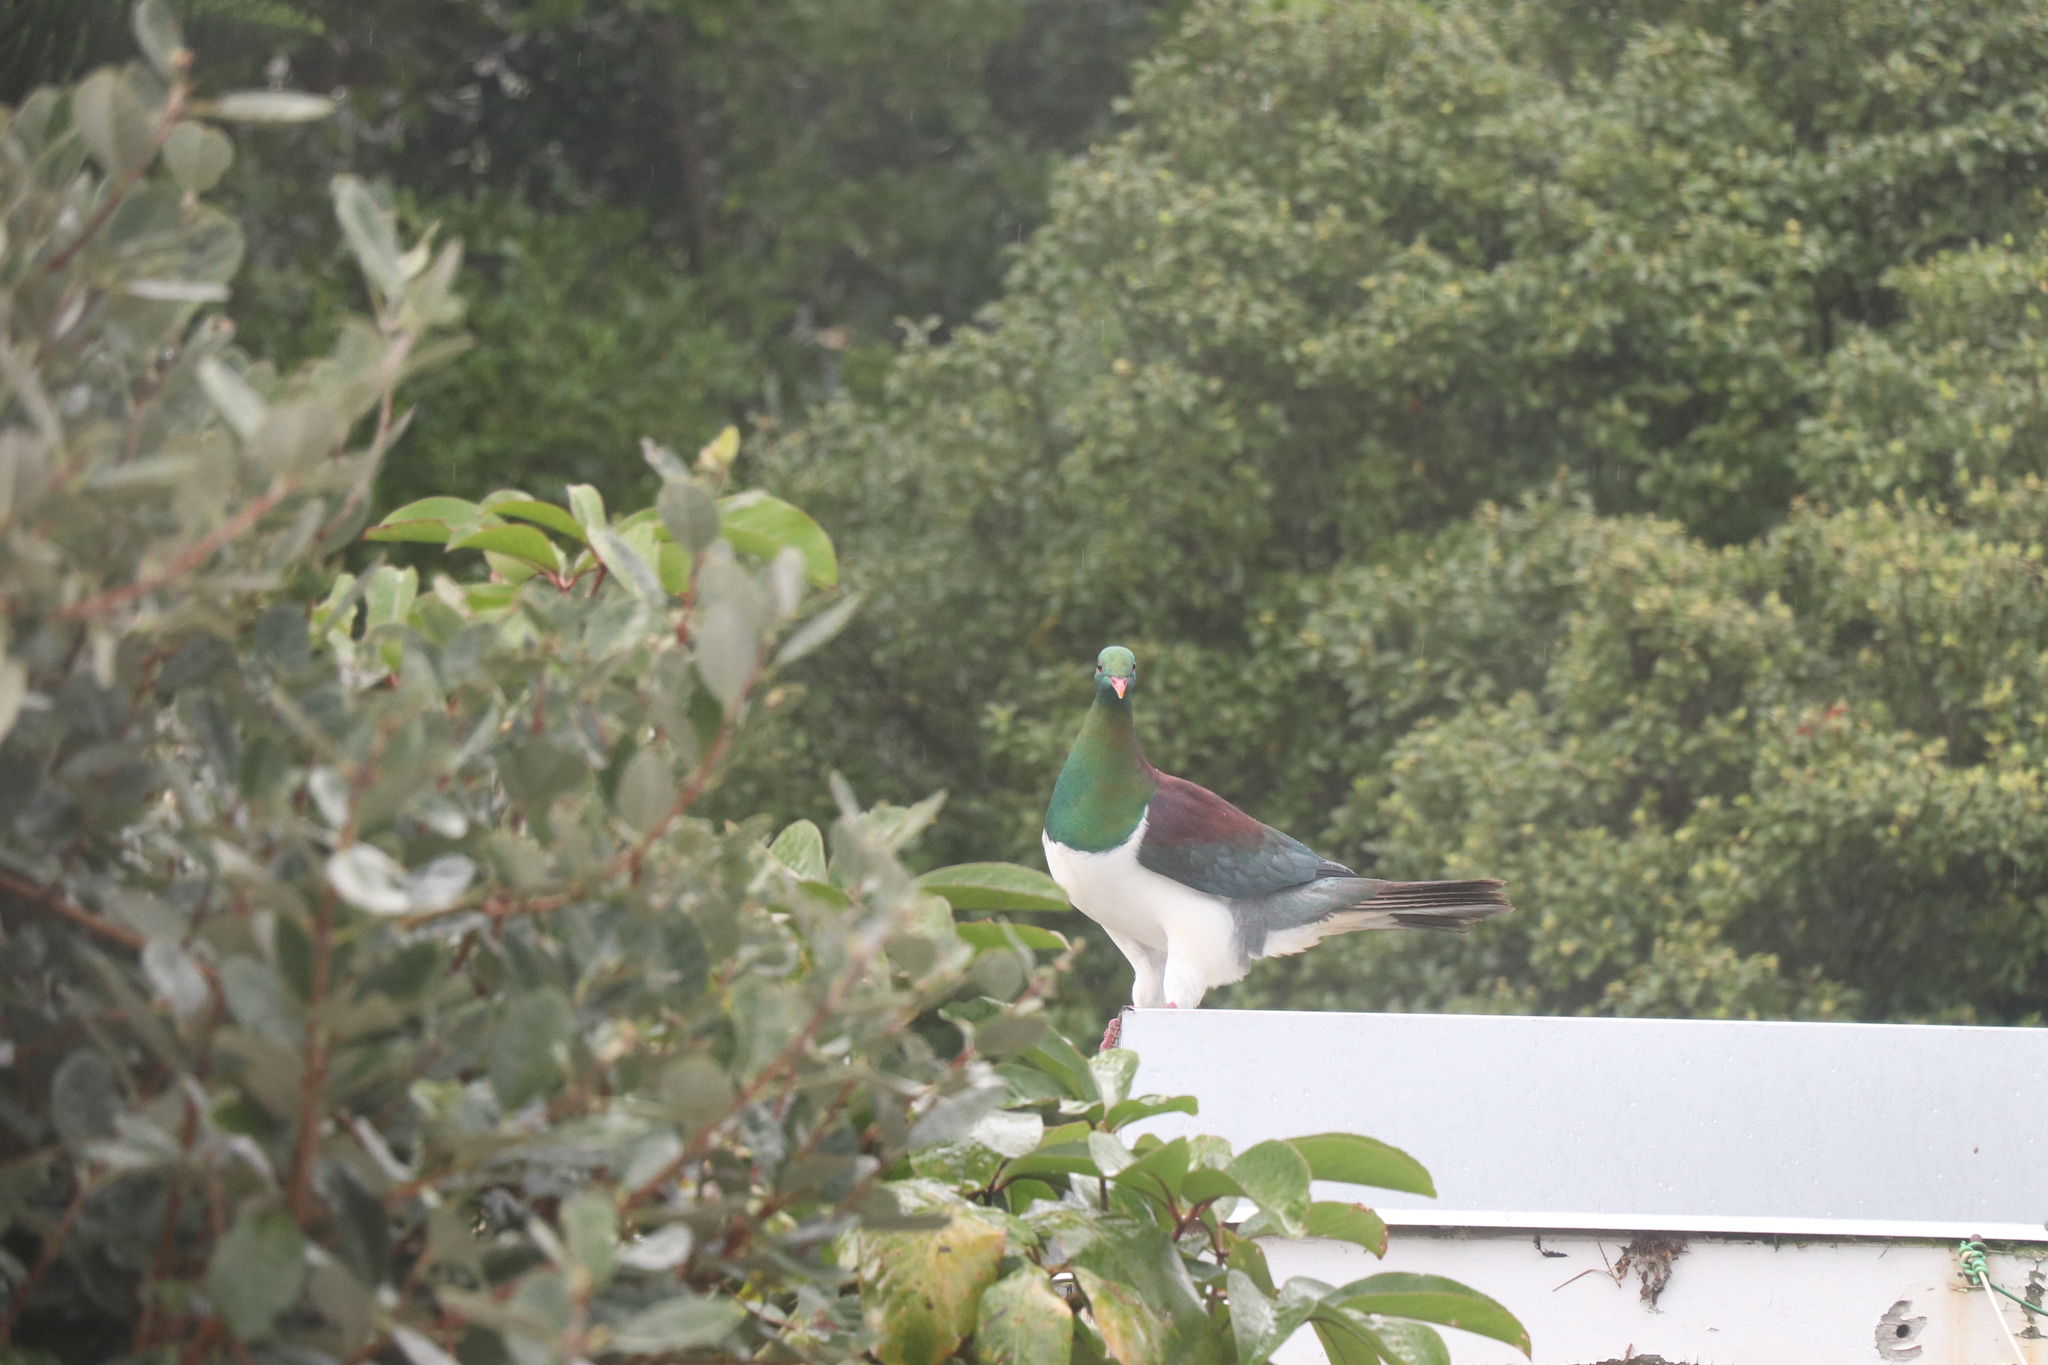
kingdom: Animalia
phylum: Chordata
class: Aves
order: Columbiformes
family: Columbidae
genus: Hemiphaga
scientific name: Hemiphaga novaeseelandiae
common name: New zealand pigeon
